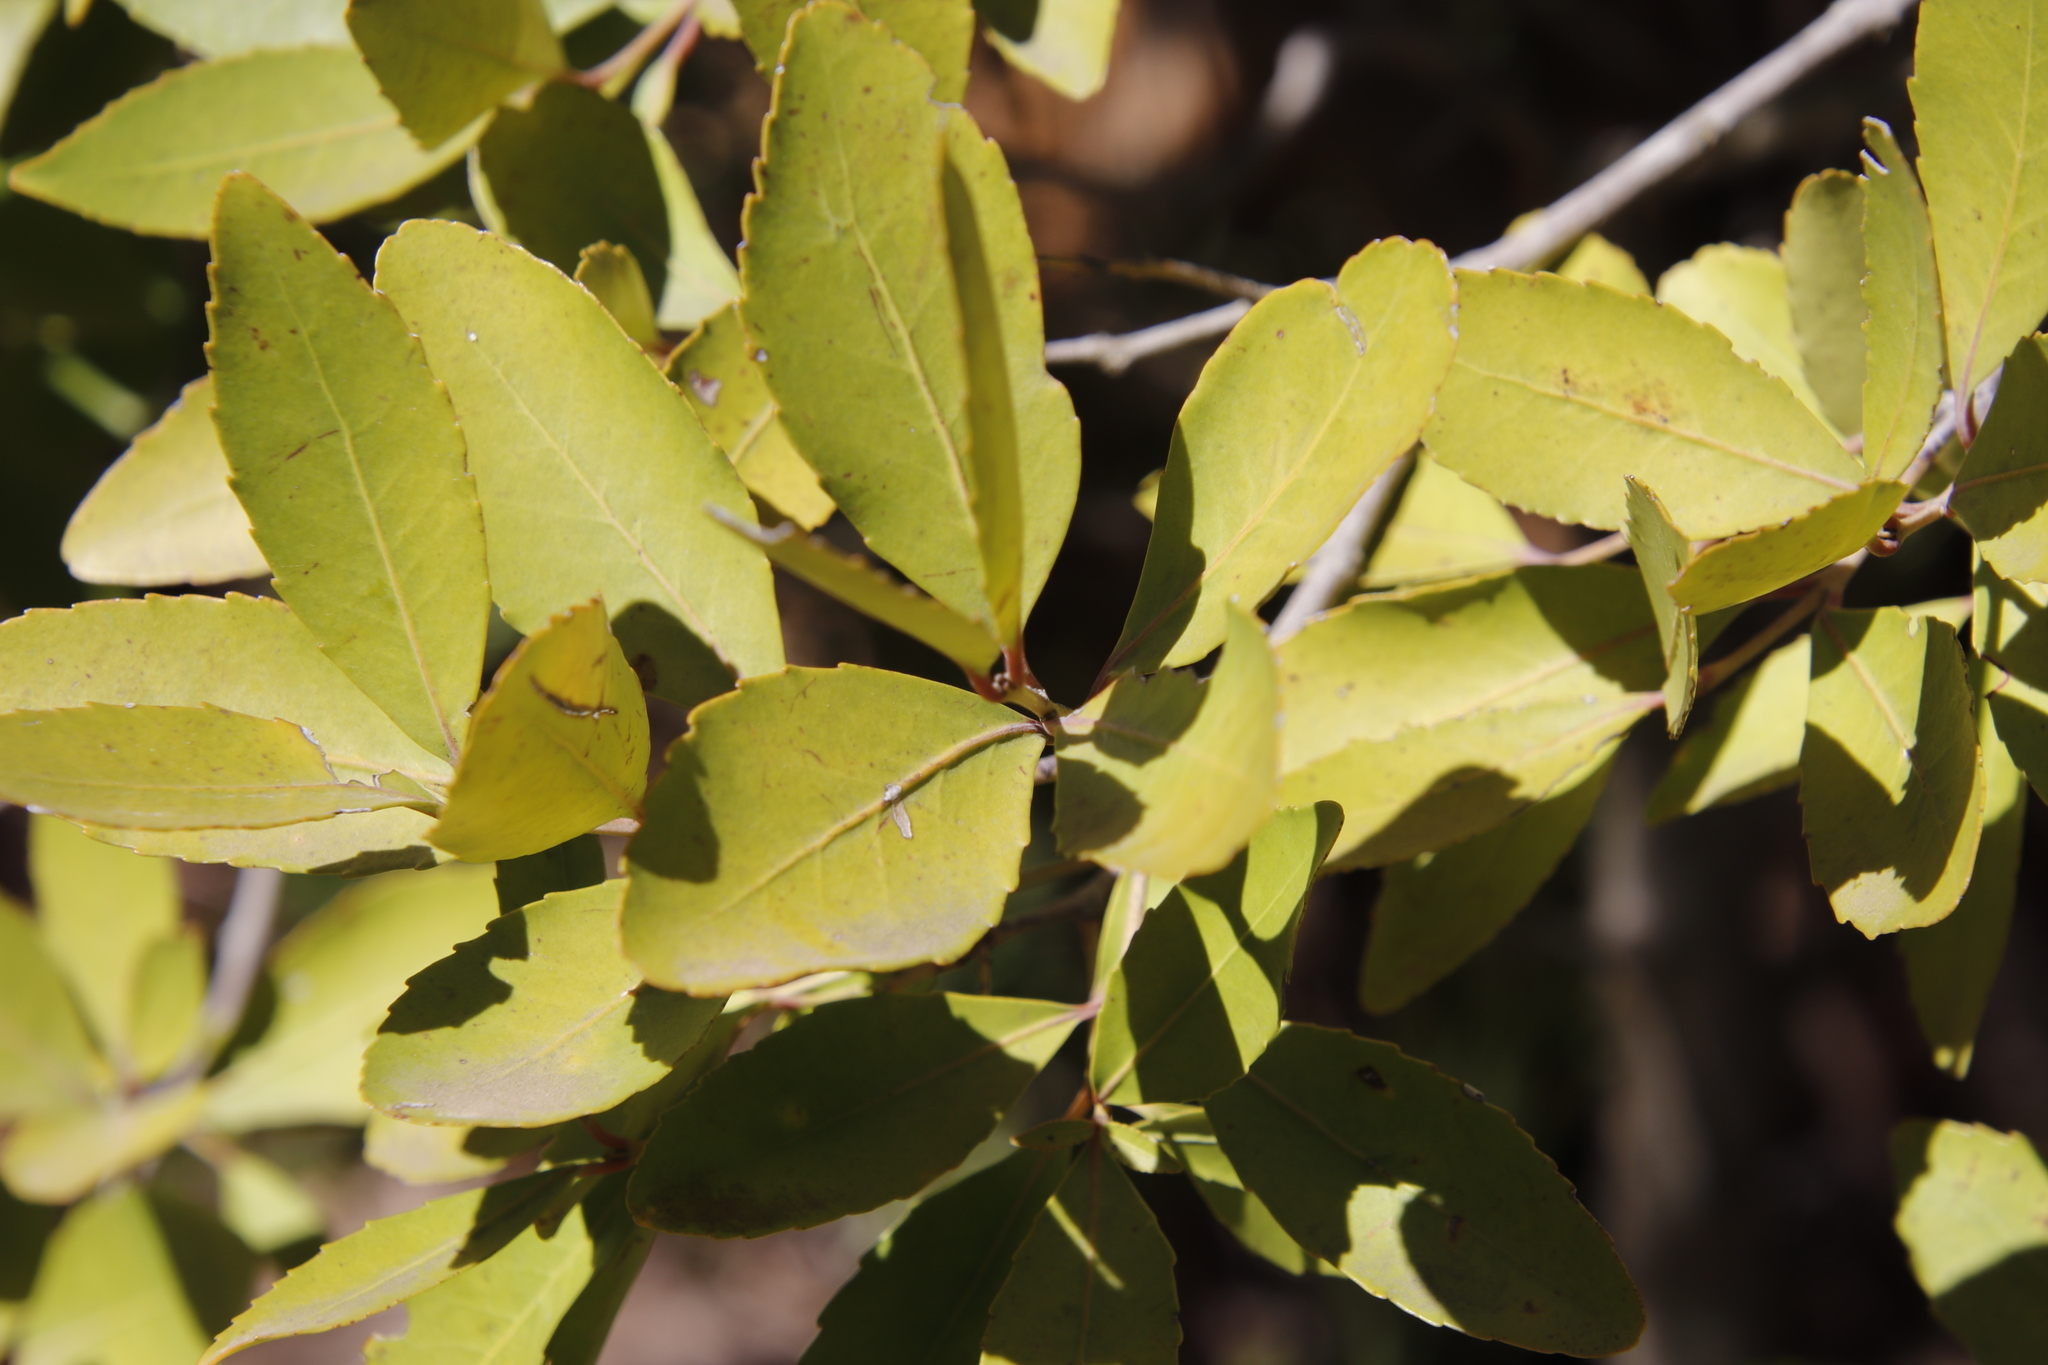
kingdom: Plantae
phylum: Tracheophyta
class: Magnoliopsida
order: Celastrales
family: Celastraceae
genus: Elaeodendron
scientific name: Elaeodendron schinoides
